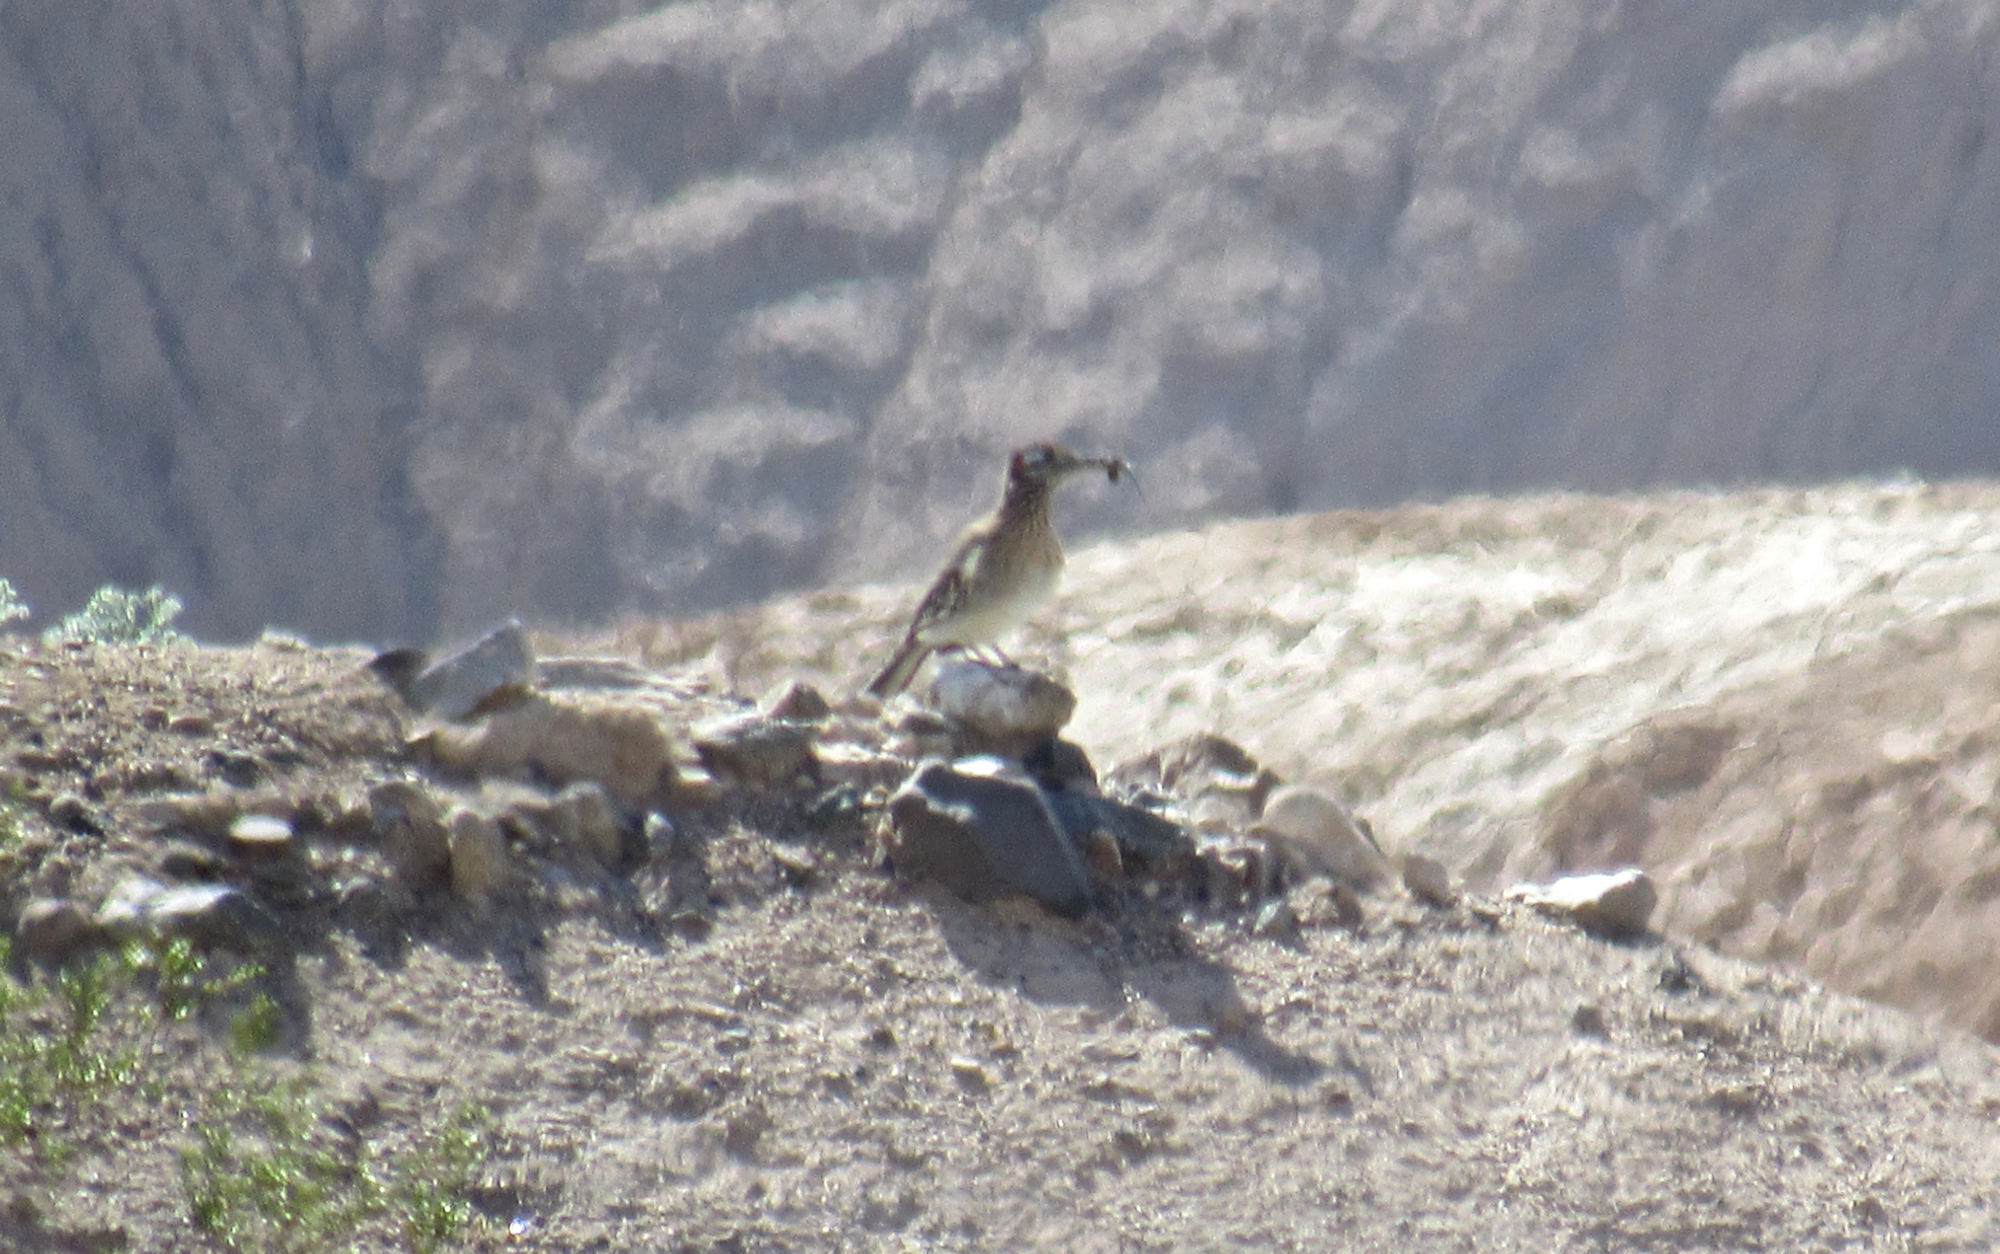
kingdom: Animalia
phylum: Chordata
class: Aves
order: Cuculiformes
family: Cuculidae
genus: Geococcyx
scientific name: Geococcyx californianus
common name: Greater roadrunner
